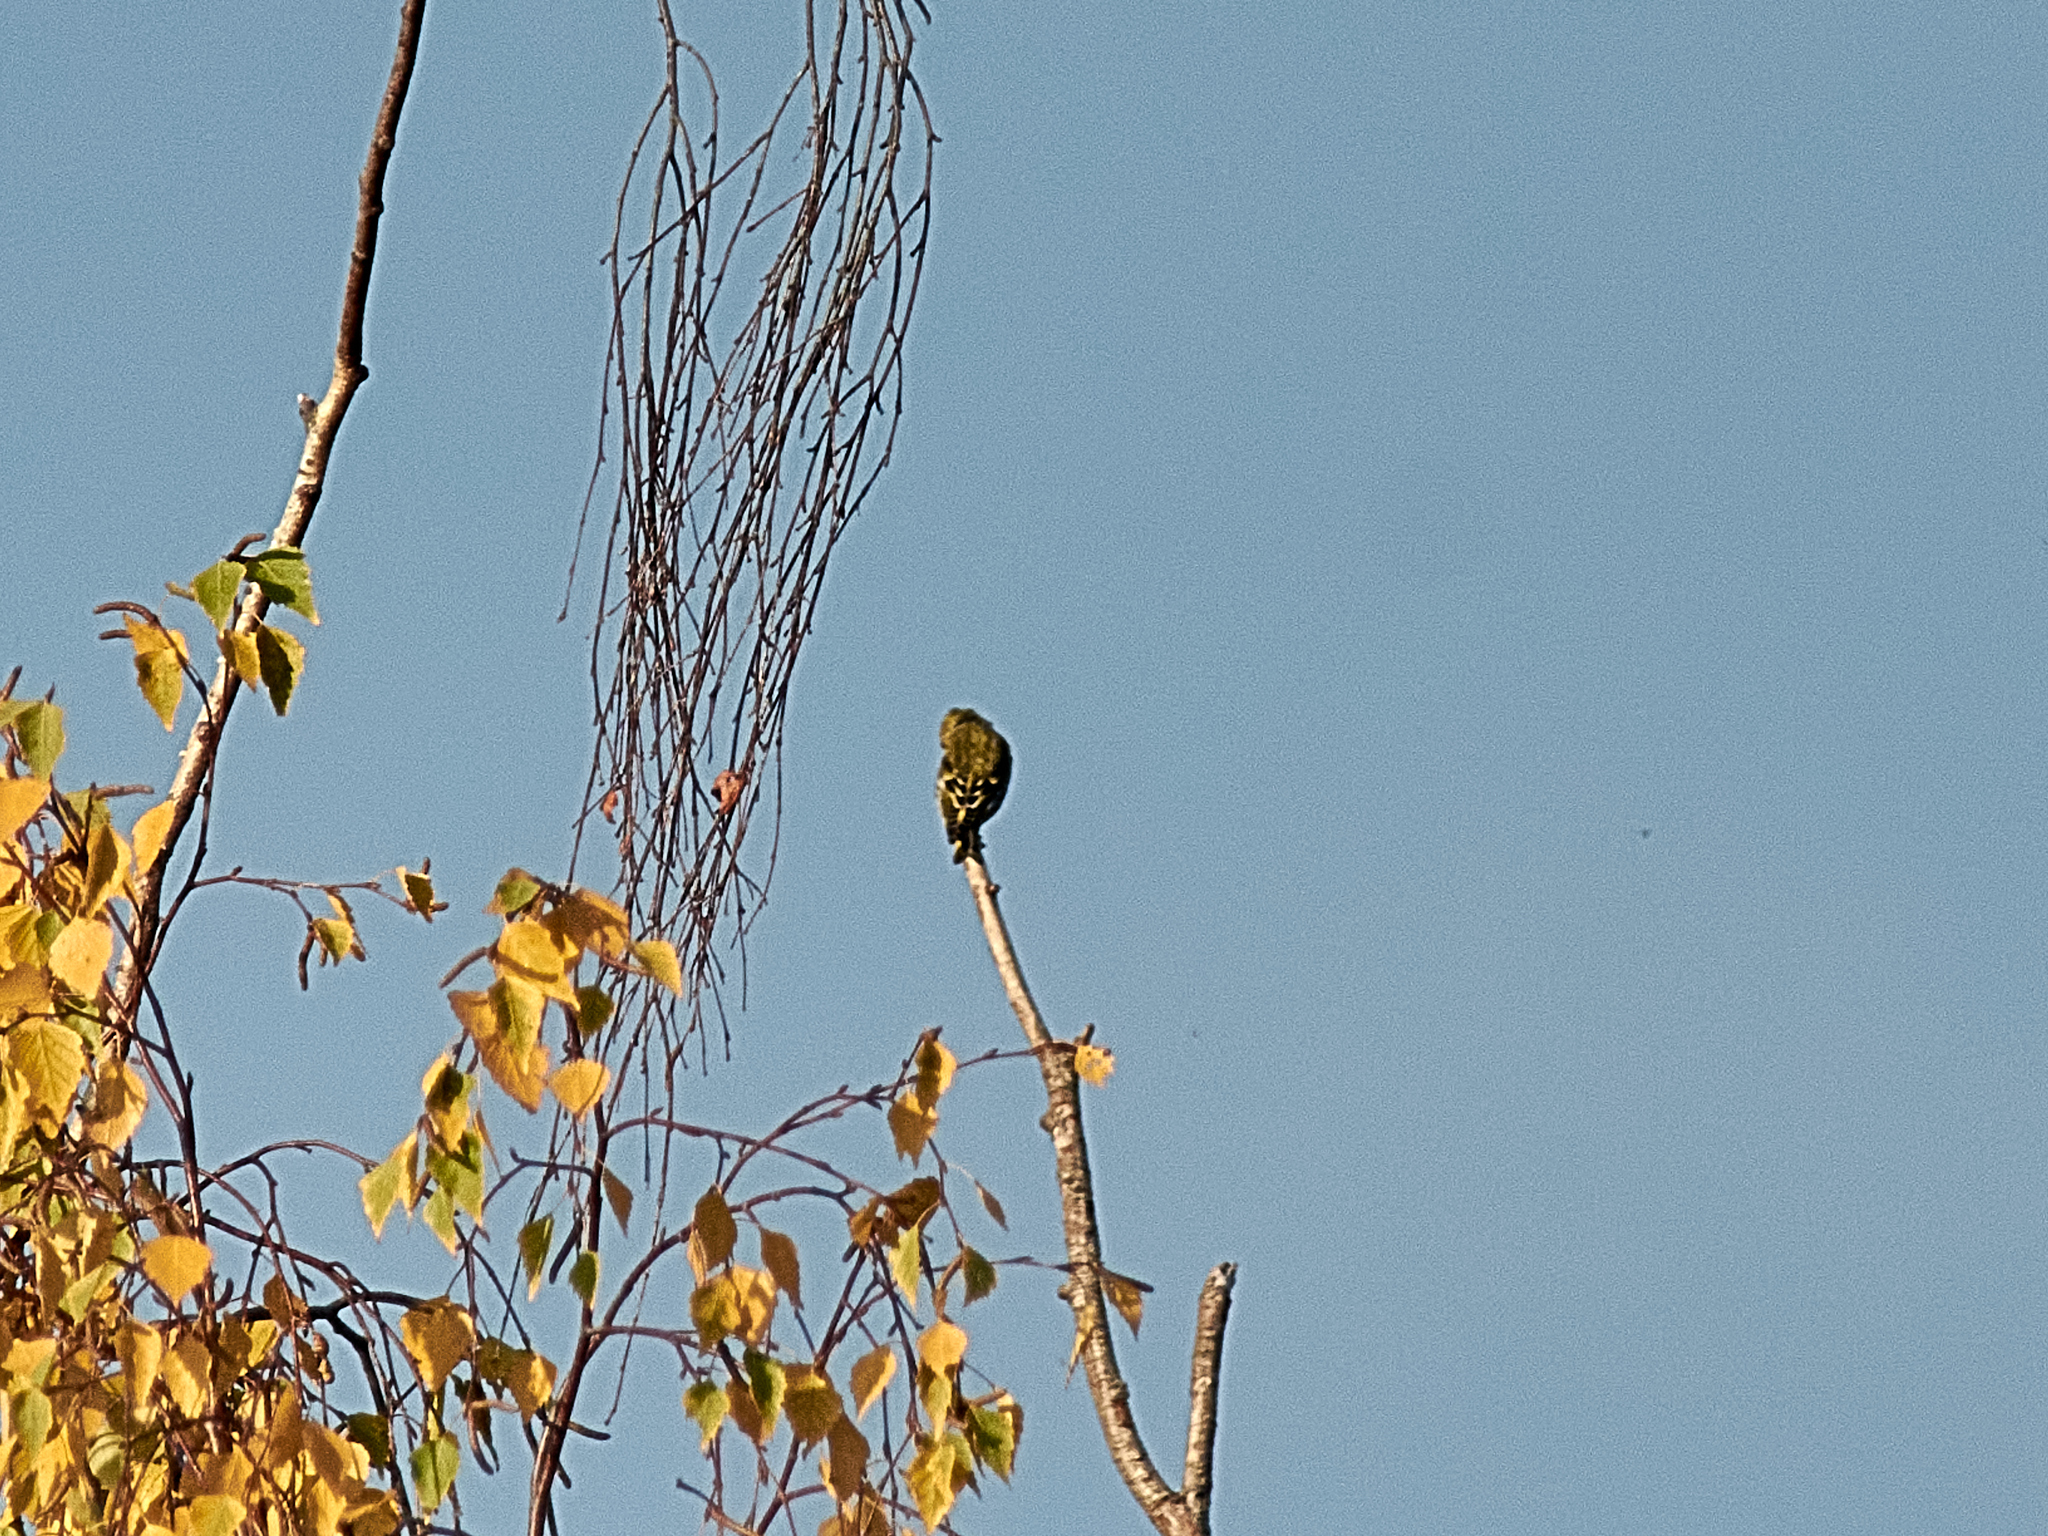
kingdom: Animalia
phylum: Chordata
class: Aves
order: Passeriformes
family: Fringillidae
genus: Spinus
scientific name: Spinus spinus
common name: Eurasian siskin
